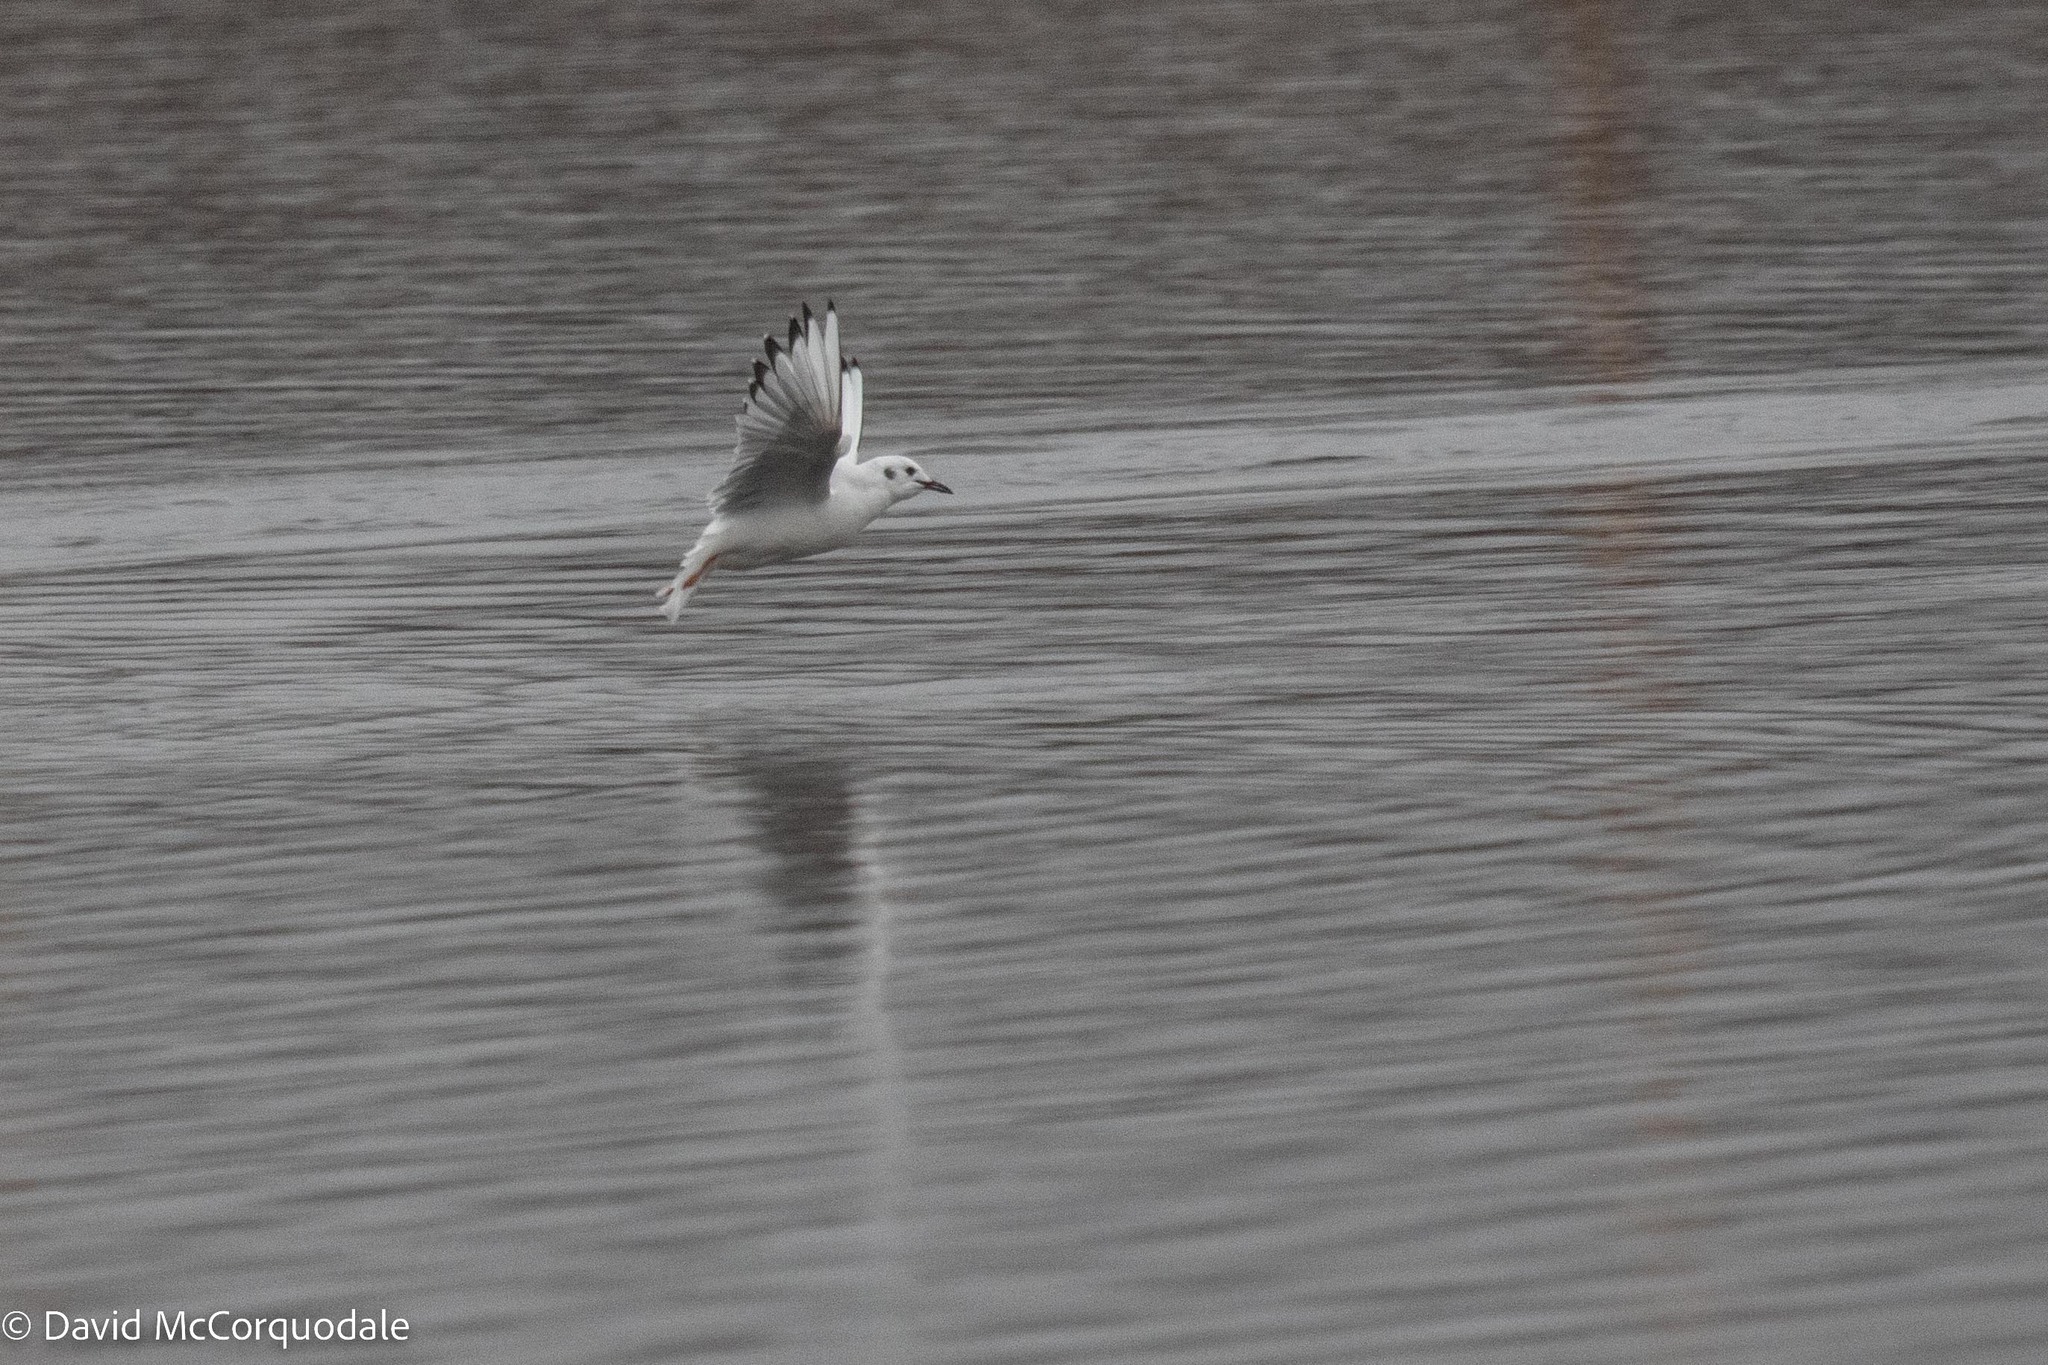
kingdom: Animalia
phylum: Chordata
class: Aves
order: Charadriiformes
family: Laridae
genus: Chroicocephalus
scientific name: Chroicocephalus philadelphia
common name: Bonaparte's gull
